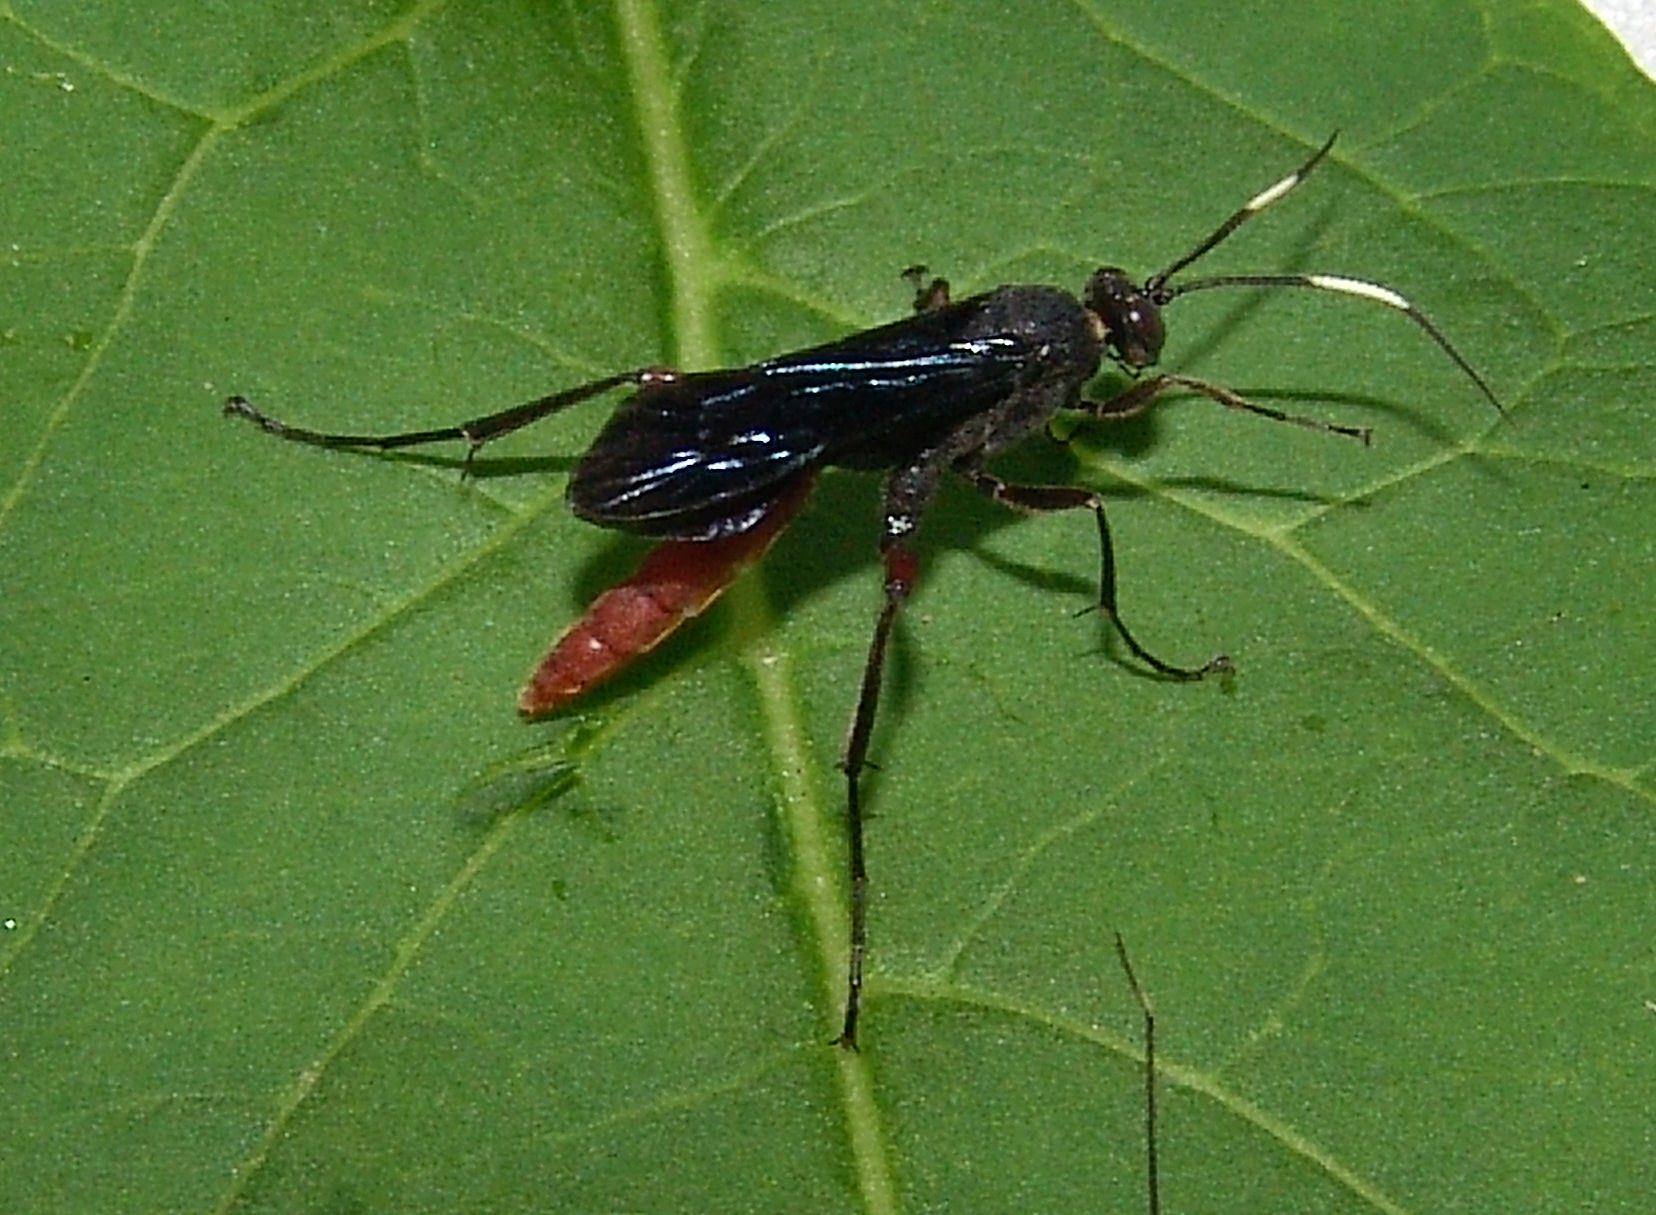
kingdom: Animalia
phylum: Arthropoda
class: Insecta
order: Hymenoptera
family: Ichneumonidae
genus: Limonethe
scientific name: Limonethe maurator
